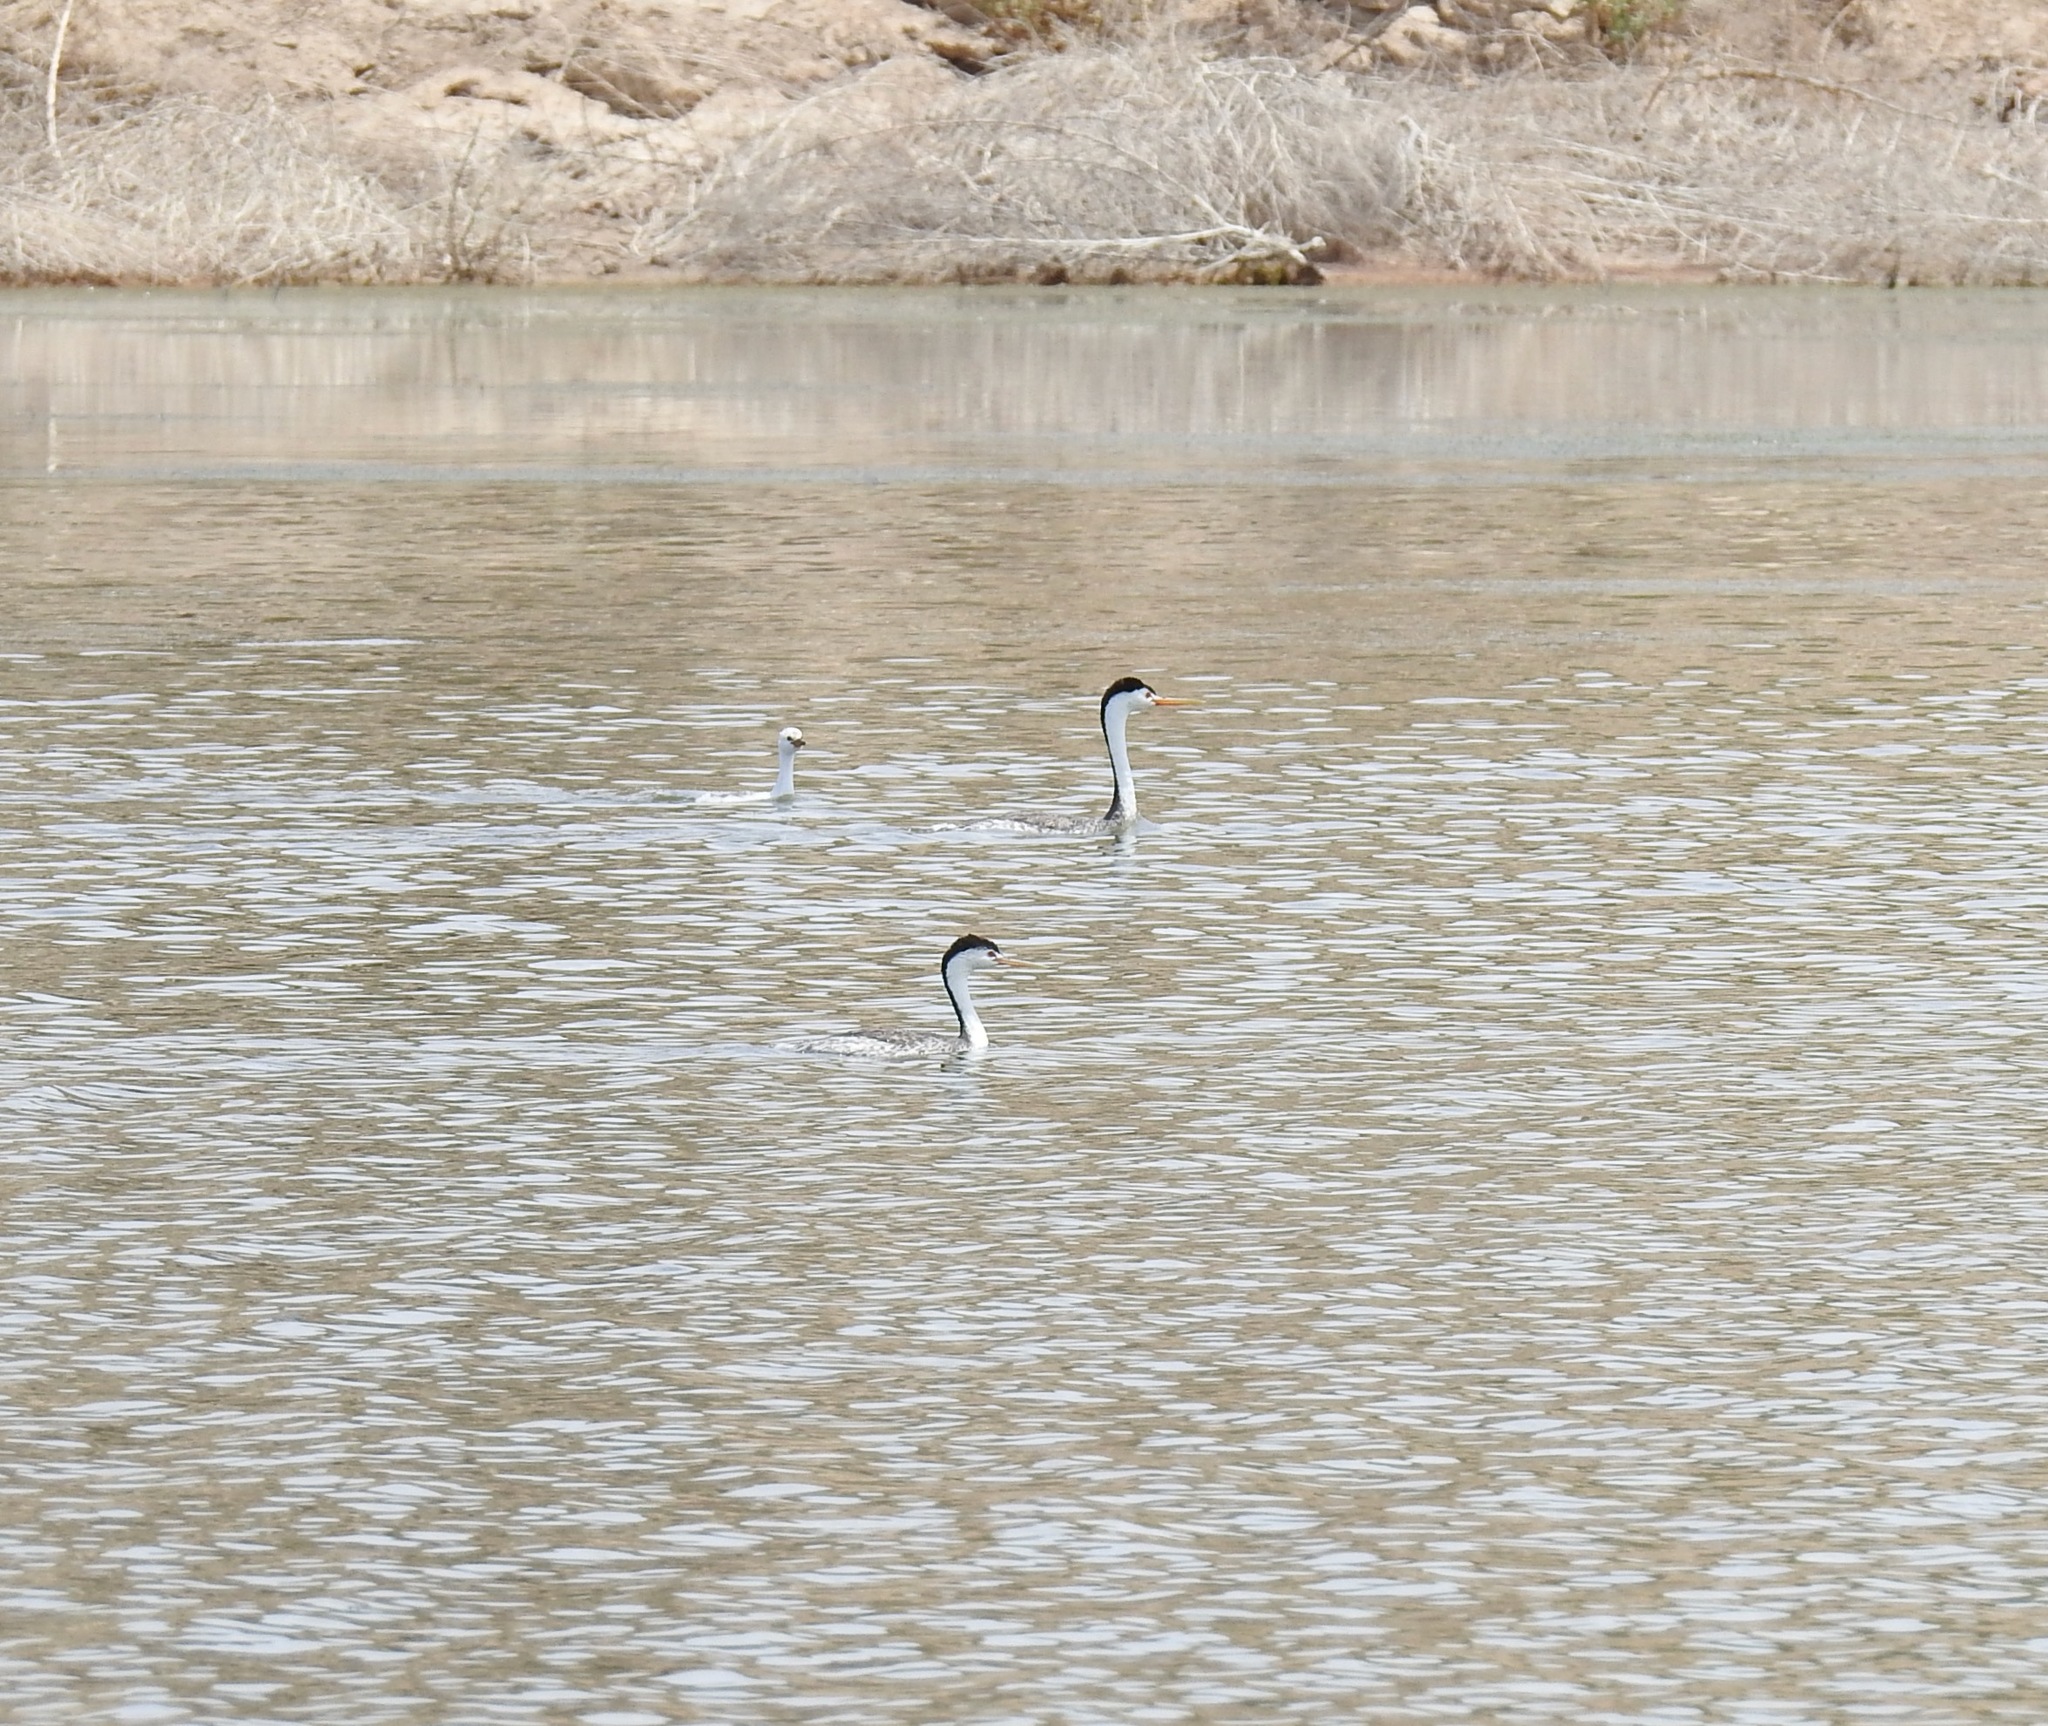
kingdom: Animalia
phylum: Chordata
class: Aves
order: Podicipediformes
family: Podicipedidae
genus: Aechmophorus
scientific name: Aechmophorus clarkii
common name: Clark's grebe
